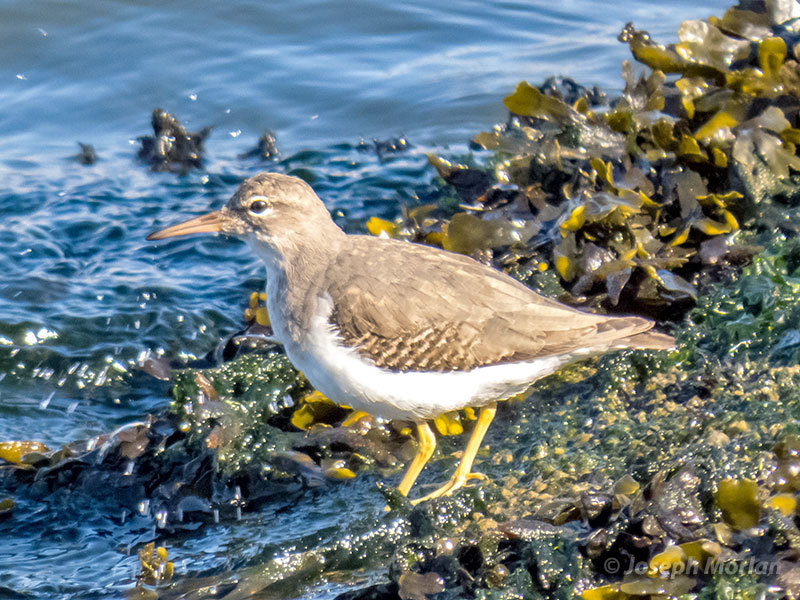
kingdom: Animalia
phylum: Chordata
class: Aves
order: Charadriiformes
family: Scolopacidae
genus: Actitis
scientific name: Actitis macularius
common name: Spotted sandpiper
